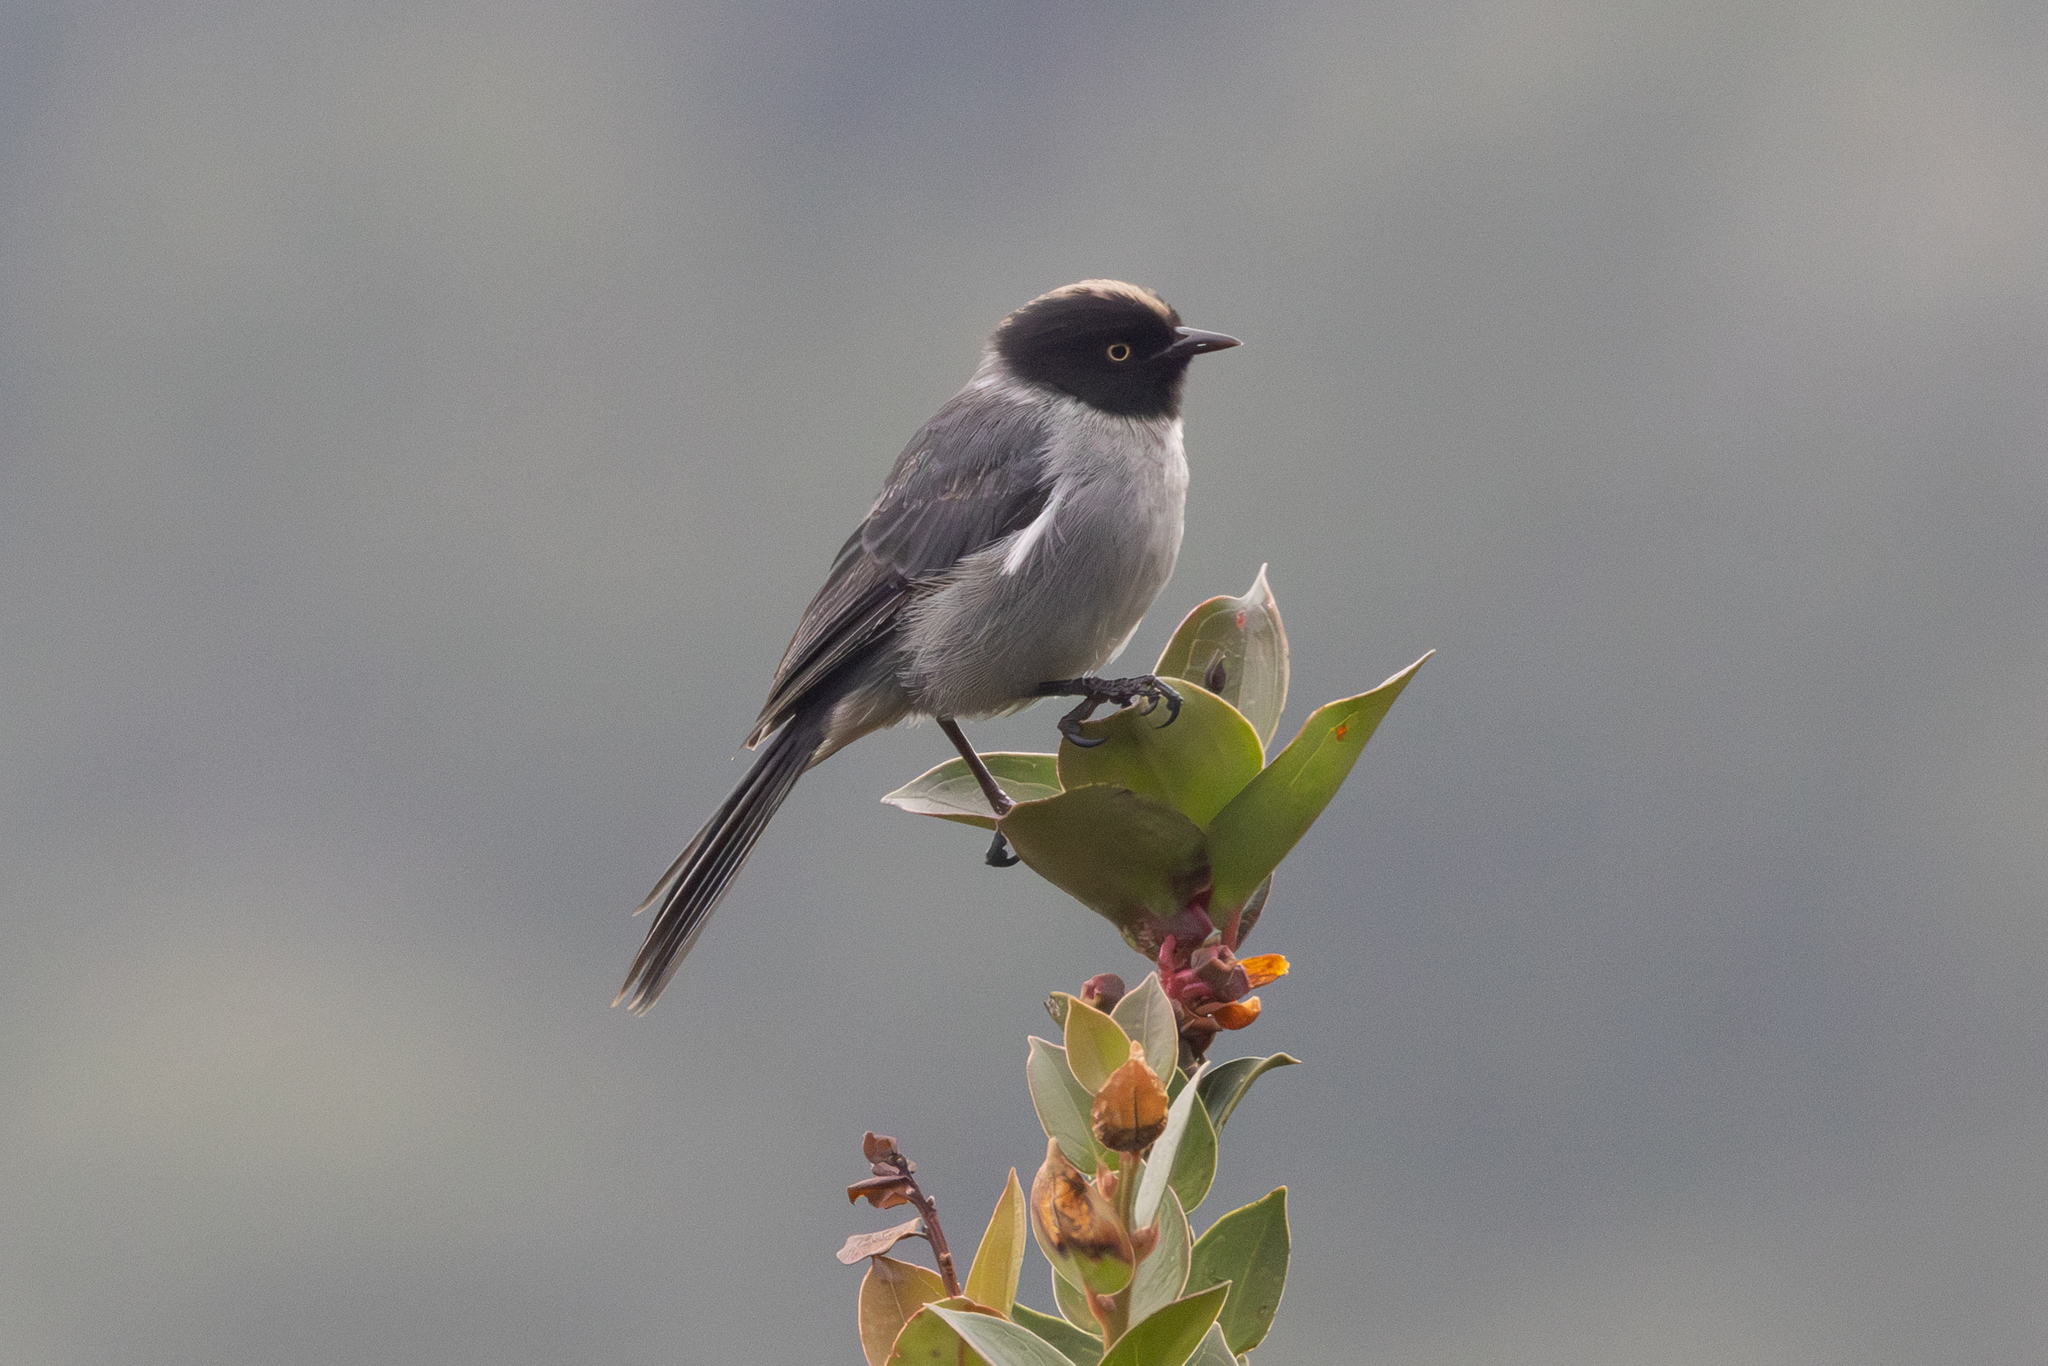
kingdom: Animalia
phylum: Chordata
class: Aves
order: Passeriformes
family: Thraupidae
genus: Pseudospingus
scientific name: Pseudospingus verticalis
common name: Black-headed hemispingus
